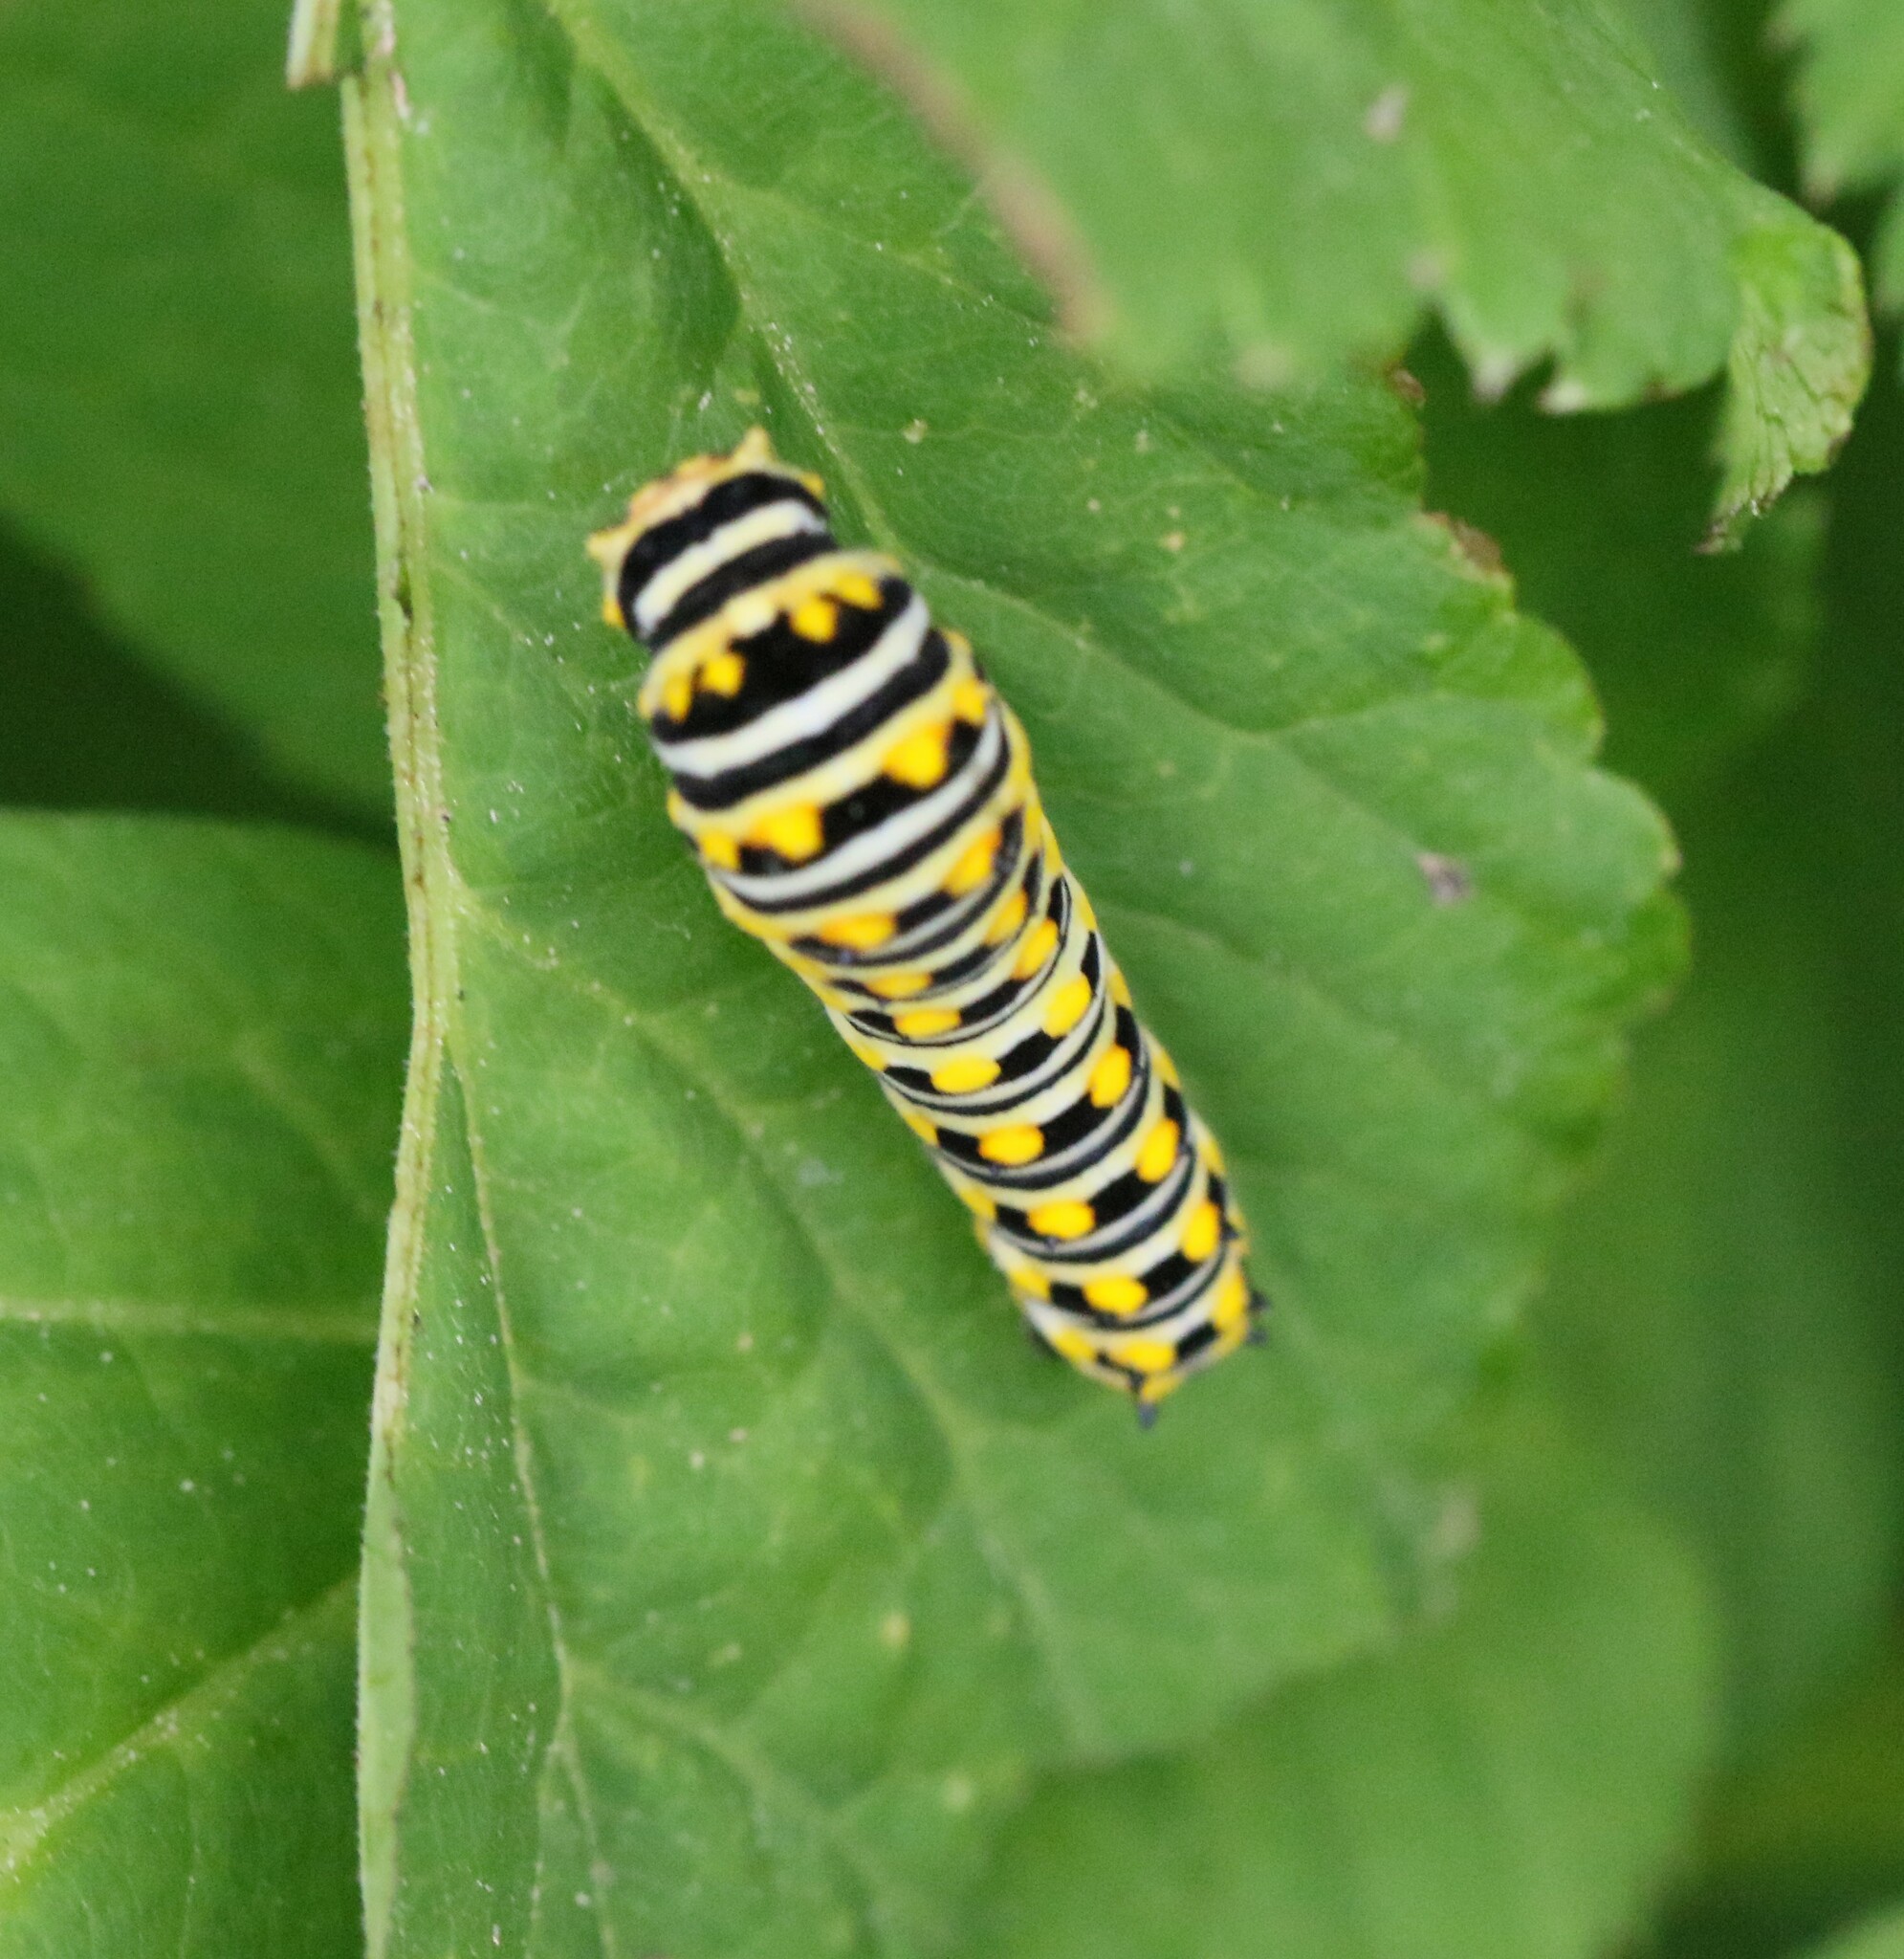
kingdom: Animalia
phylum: Arthropoda
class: Insecta
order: Lepidoptera
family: Papilionidae
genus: Papilio
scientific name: Papilio polyxenes
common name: Black swallowtail
